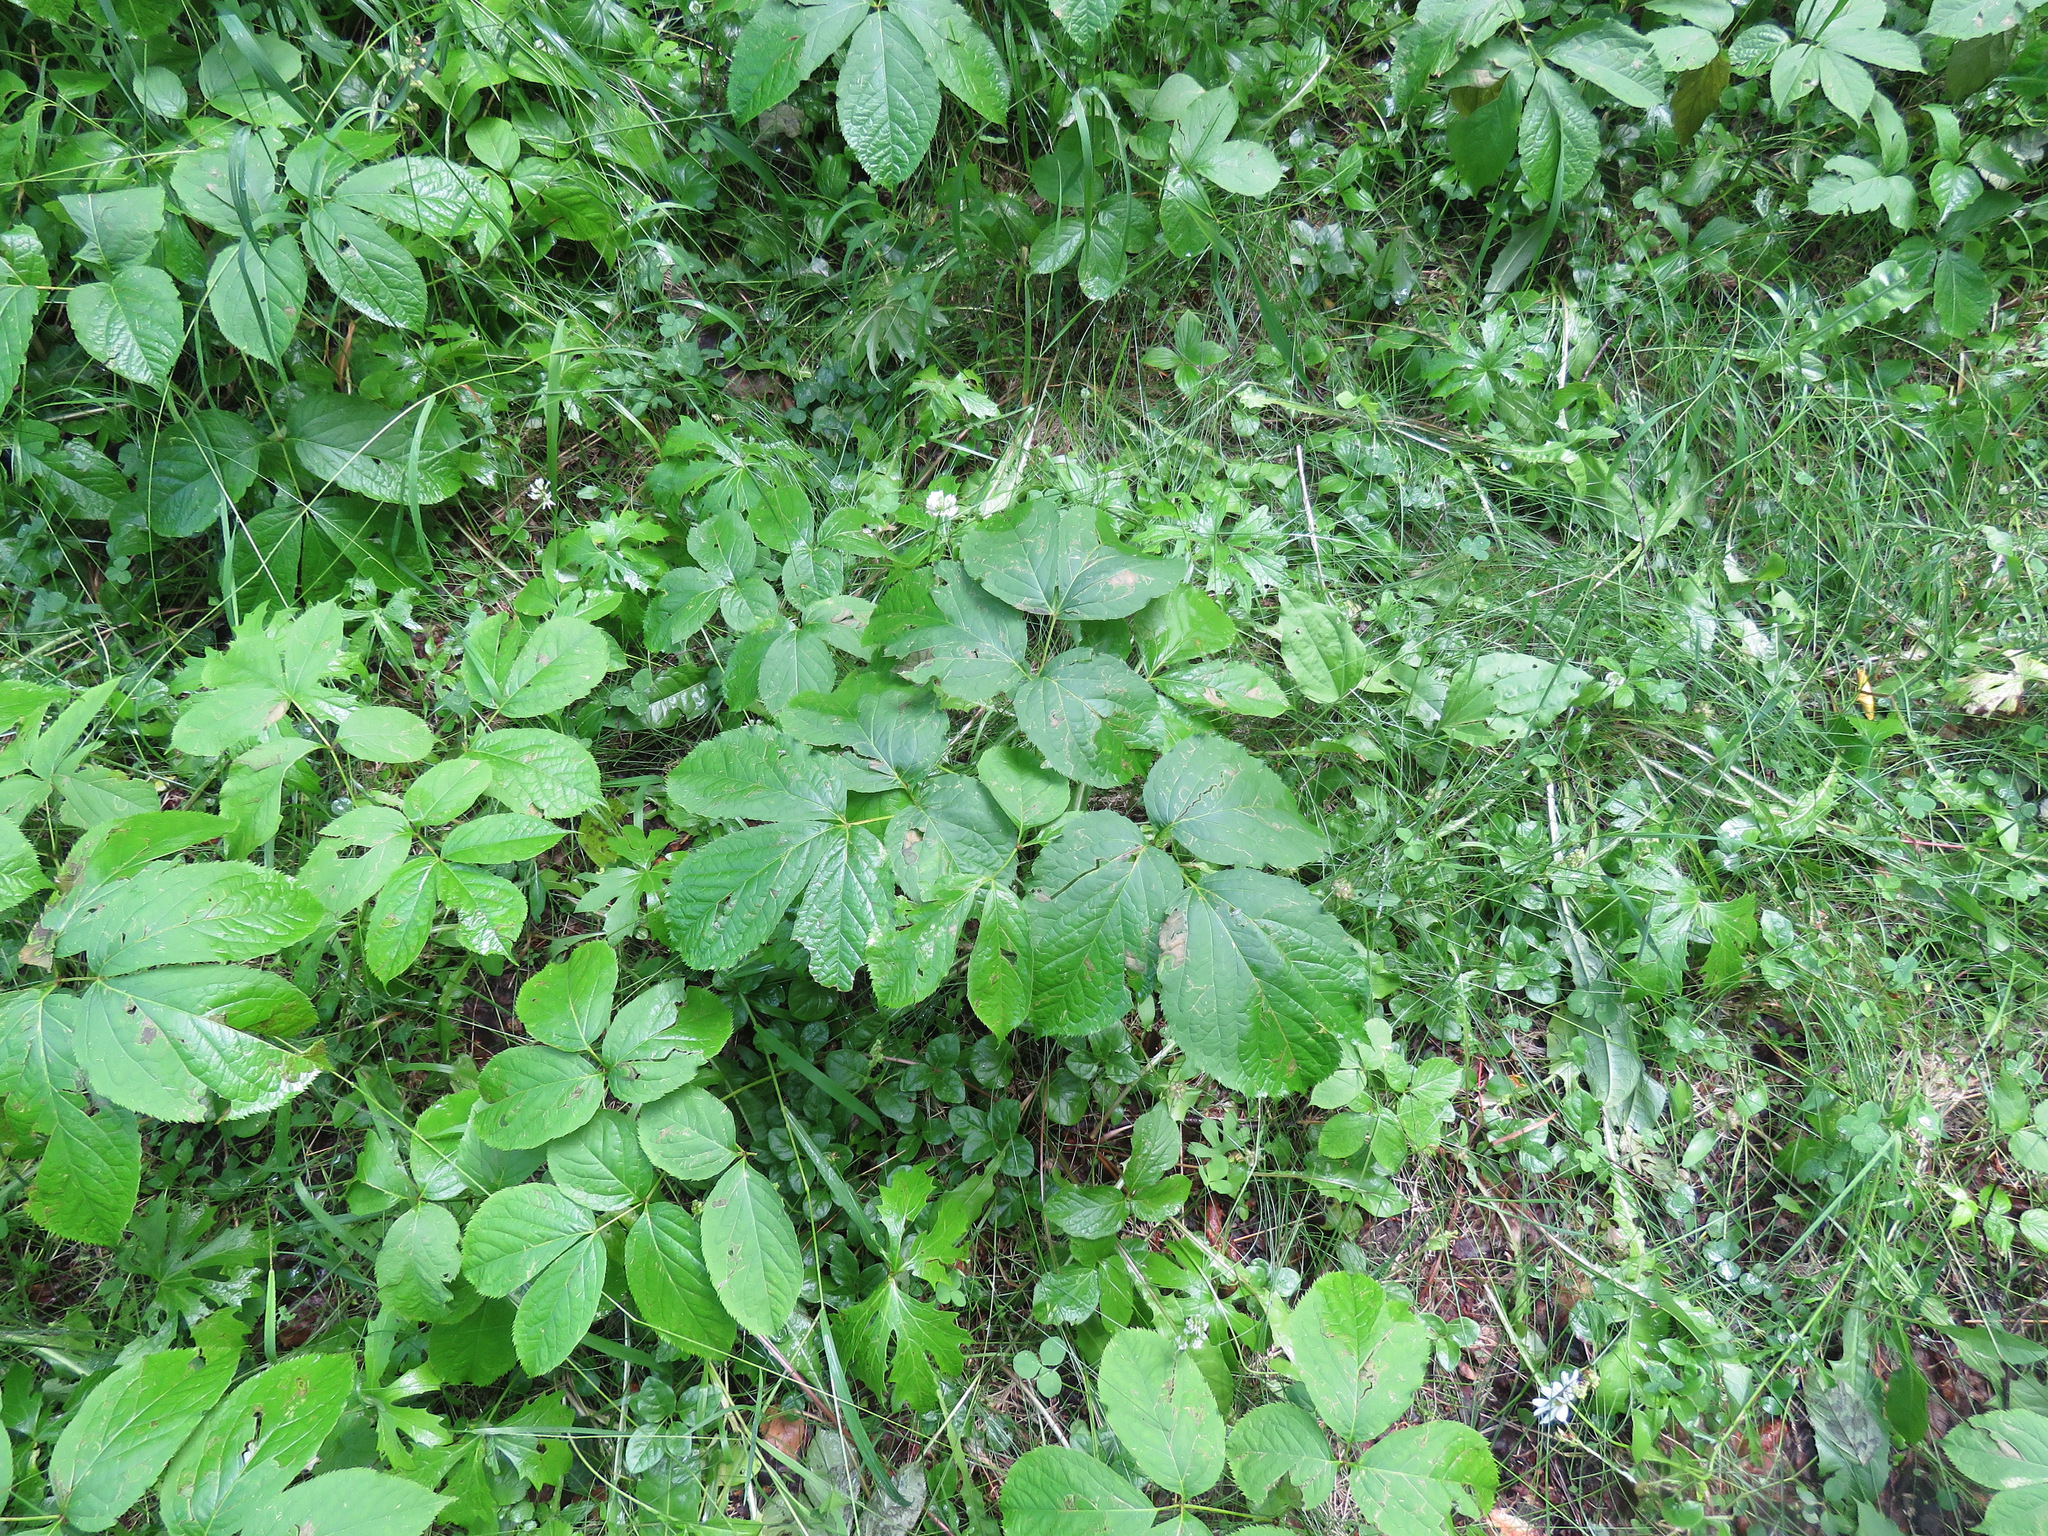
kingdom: Plantae
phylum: Tracheophyta
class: Magnoliopsida
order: Apiales
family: Araliaceae
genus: Aralia
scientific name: Aralia nudicaulis
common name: Wild sarsaparilla
